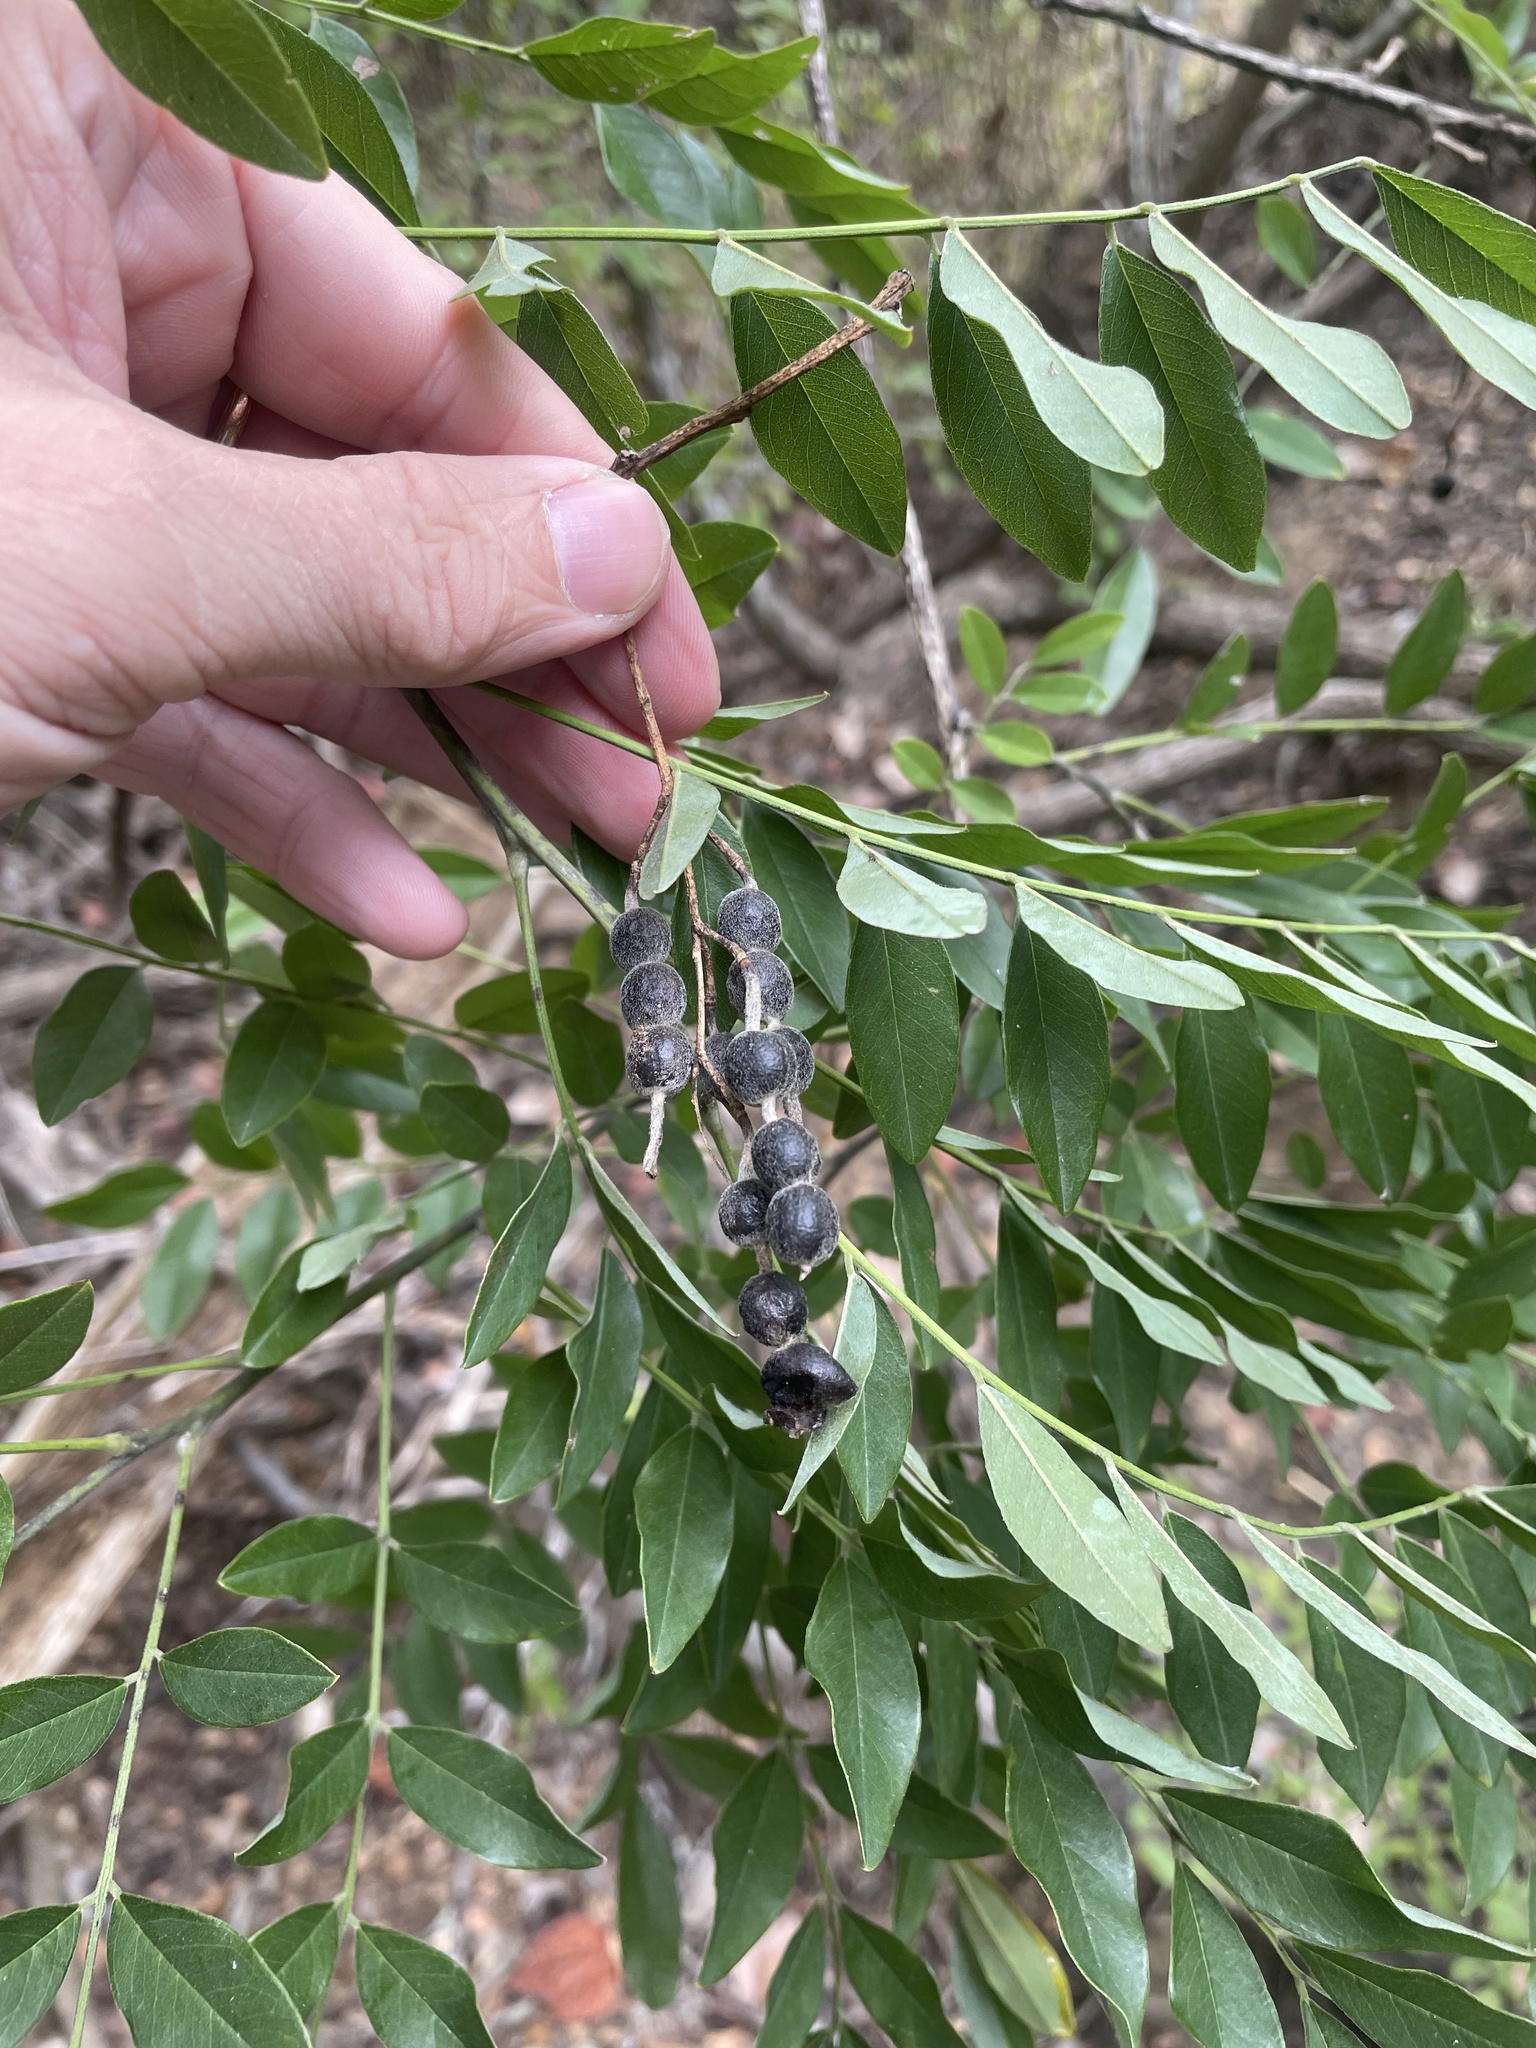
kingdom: Plantae
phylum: Tracheophyta
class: Magnoliopsida
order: Fabales
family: Fabaceae
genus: Styphnolobium
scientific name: Styphnolobium affine
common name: Texas sophora
